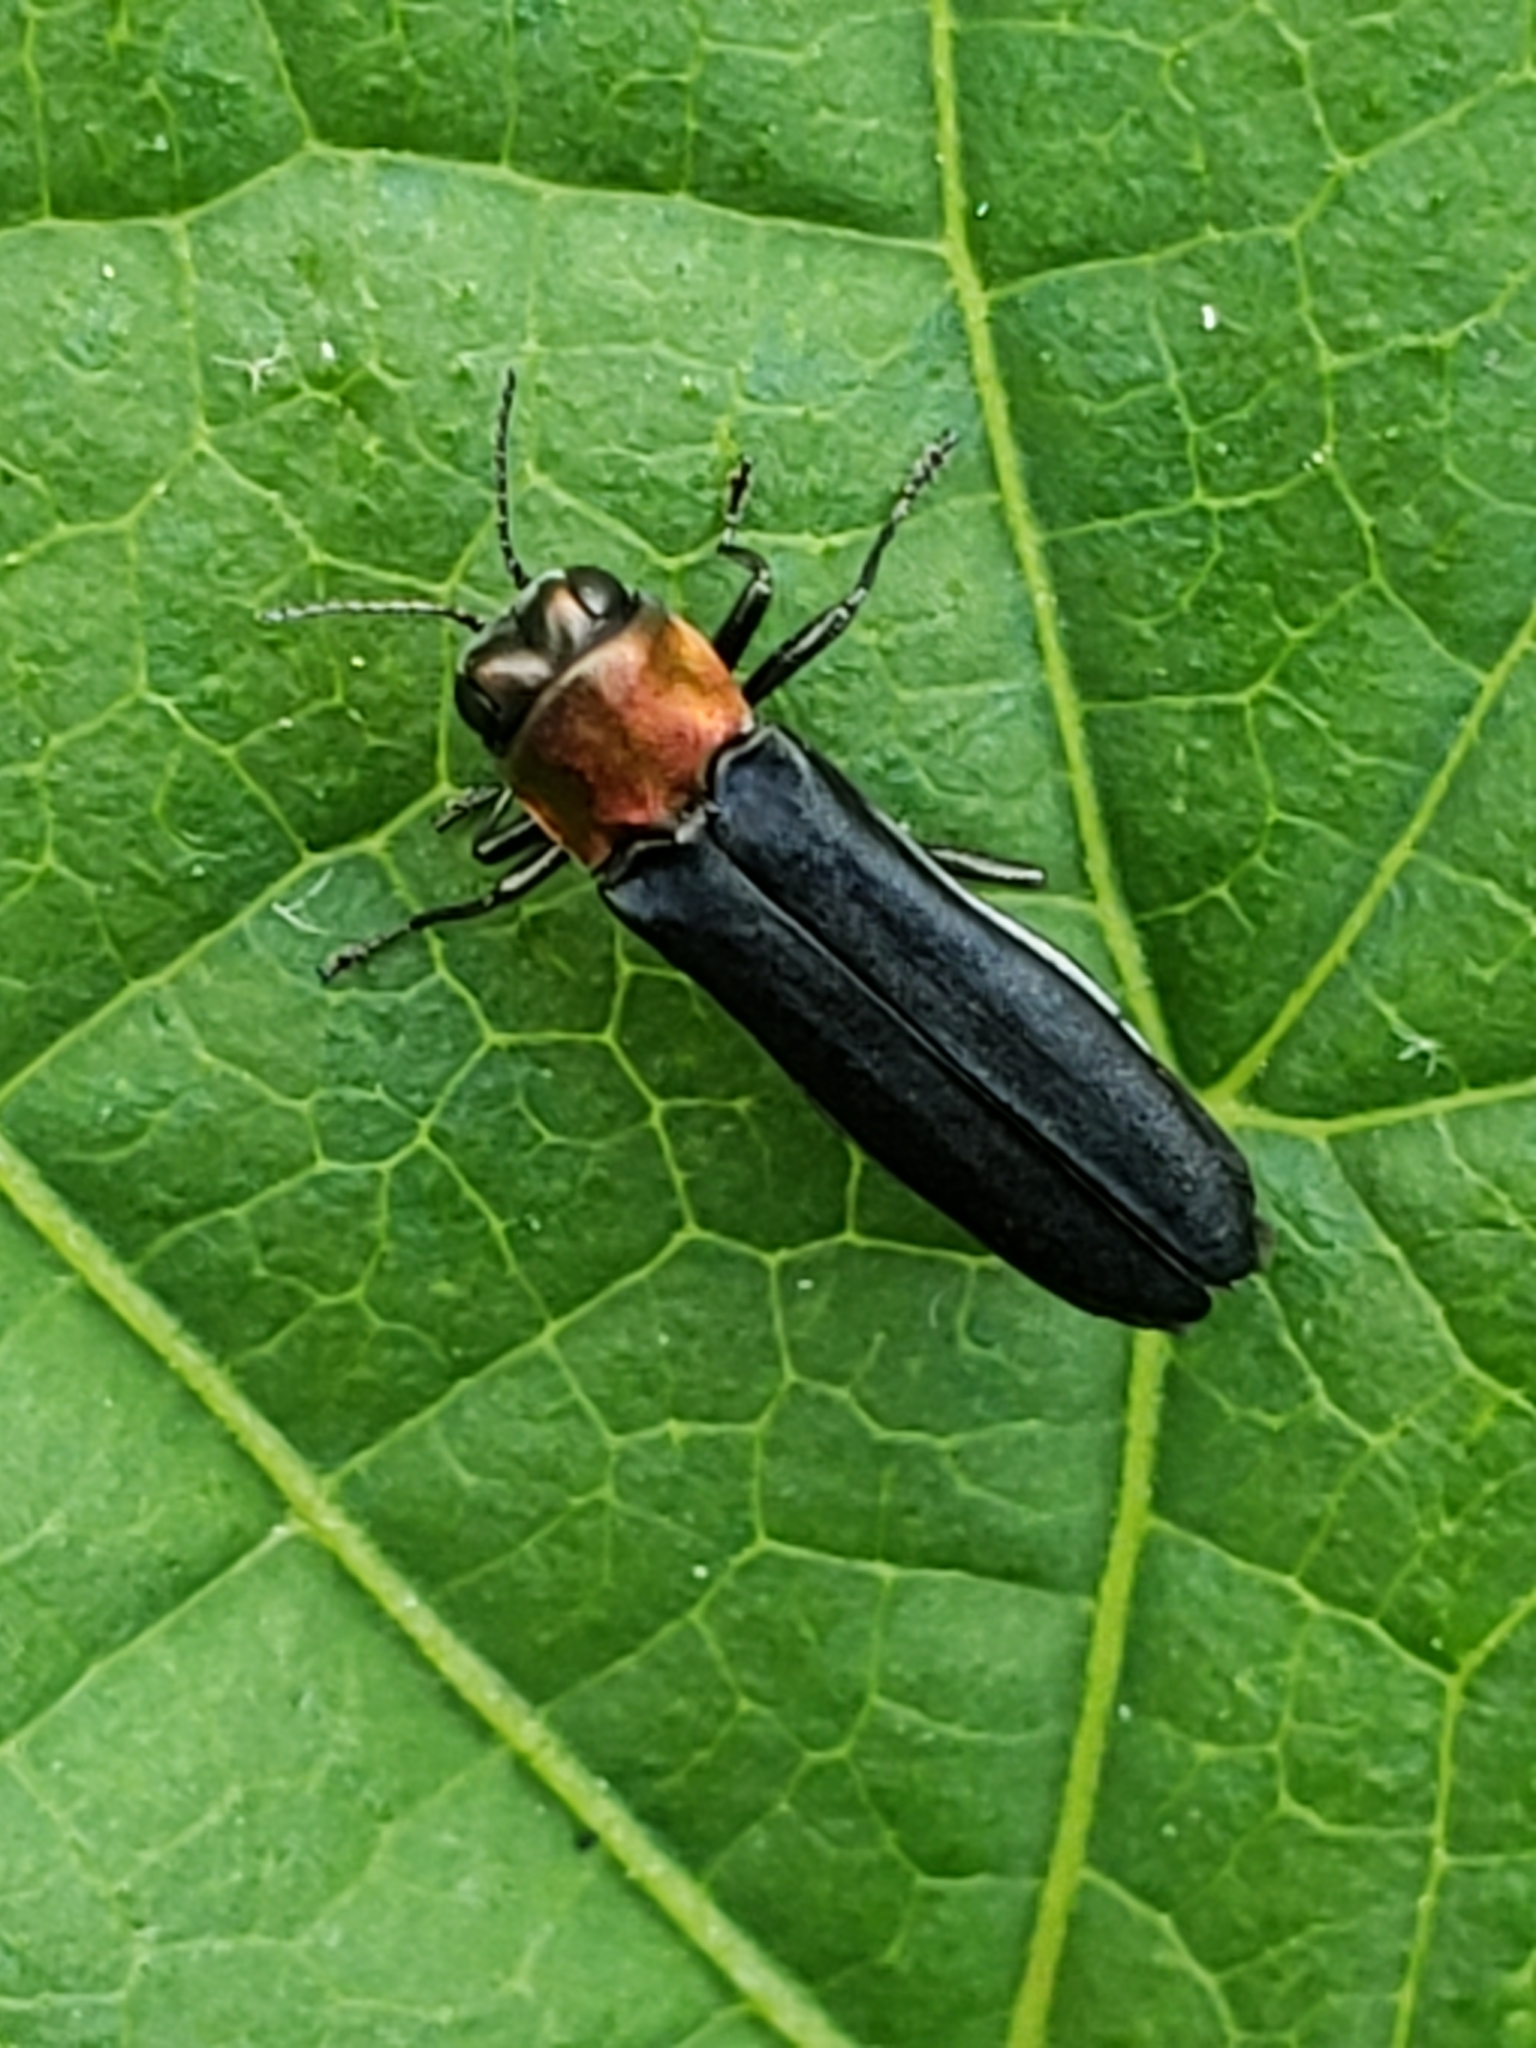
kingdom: Animalia
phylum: Arthropoda
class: Insecta
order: Coleoptera
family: Buprestidae
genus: Agrilus
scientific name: Agrilus ruficollis
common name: Red-necked cane borer beetle
